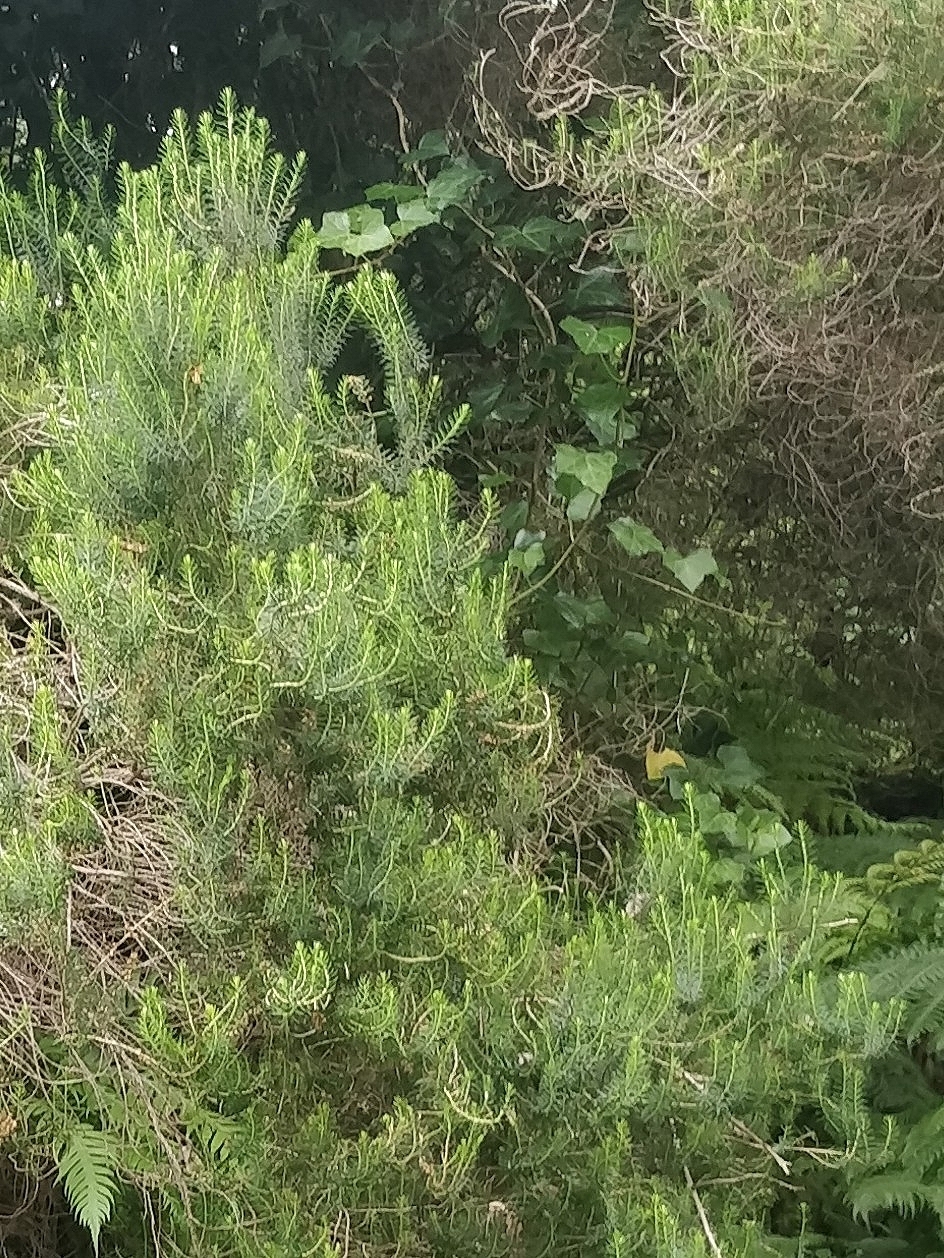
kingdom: Plantae
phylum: Tracheophyta
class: Magnoliopsida
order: Ericales
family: Ericaceae
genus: Erica
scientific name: Erica platycodon
